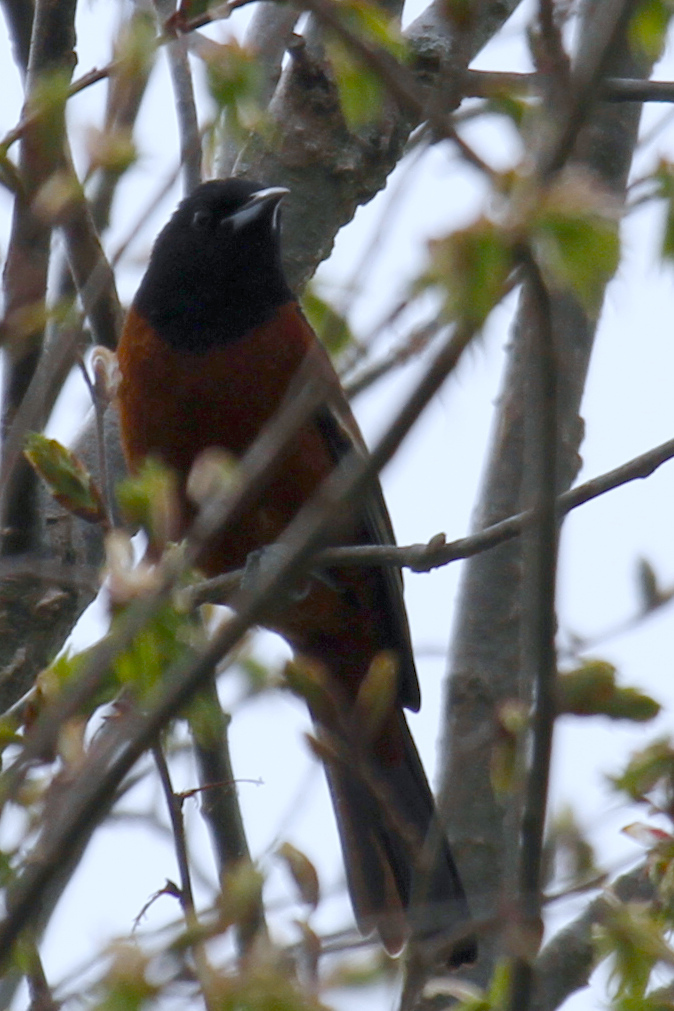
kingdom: Animalia
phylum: Chordata
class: Aves
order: Passeriformes
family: Icteridae
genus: Icterus
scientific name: Icterus spurius
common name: Orchard oriole
